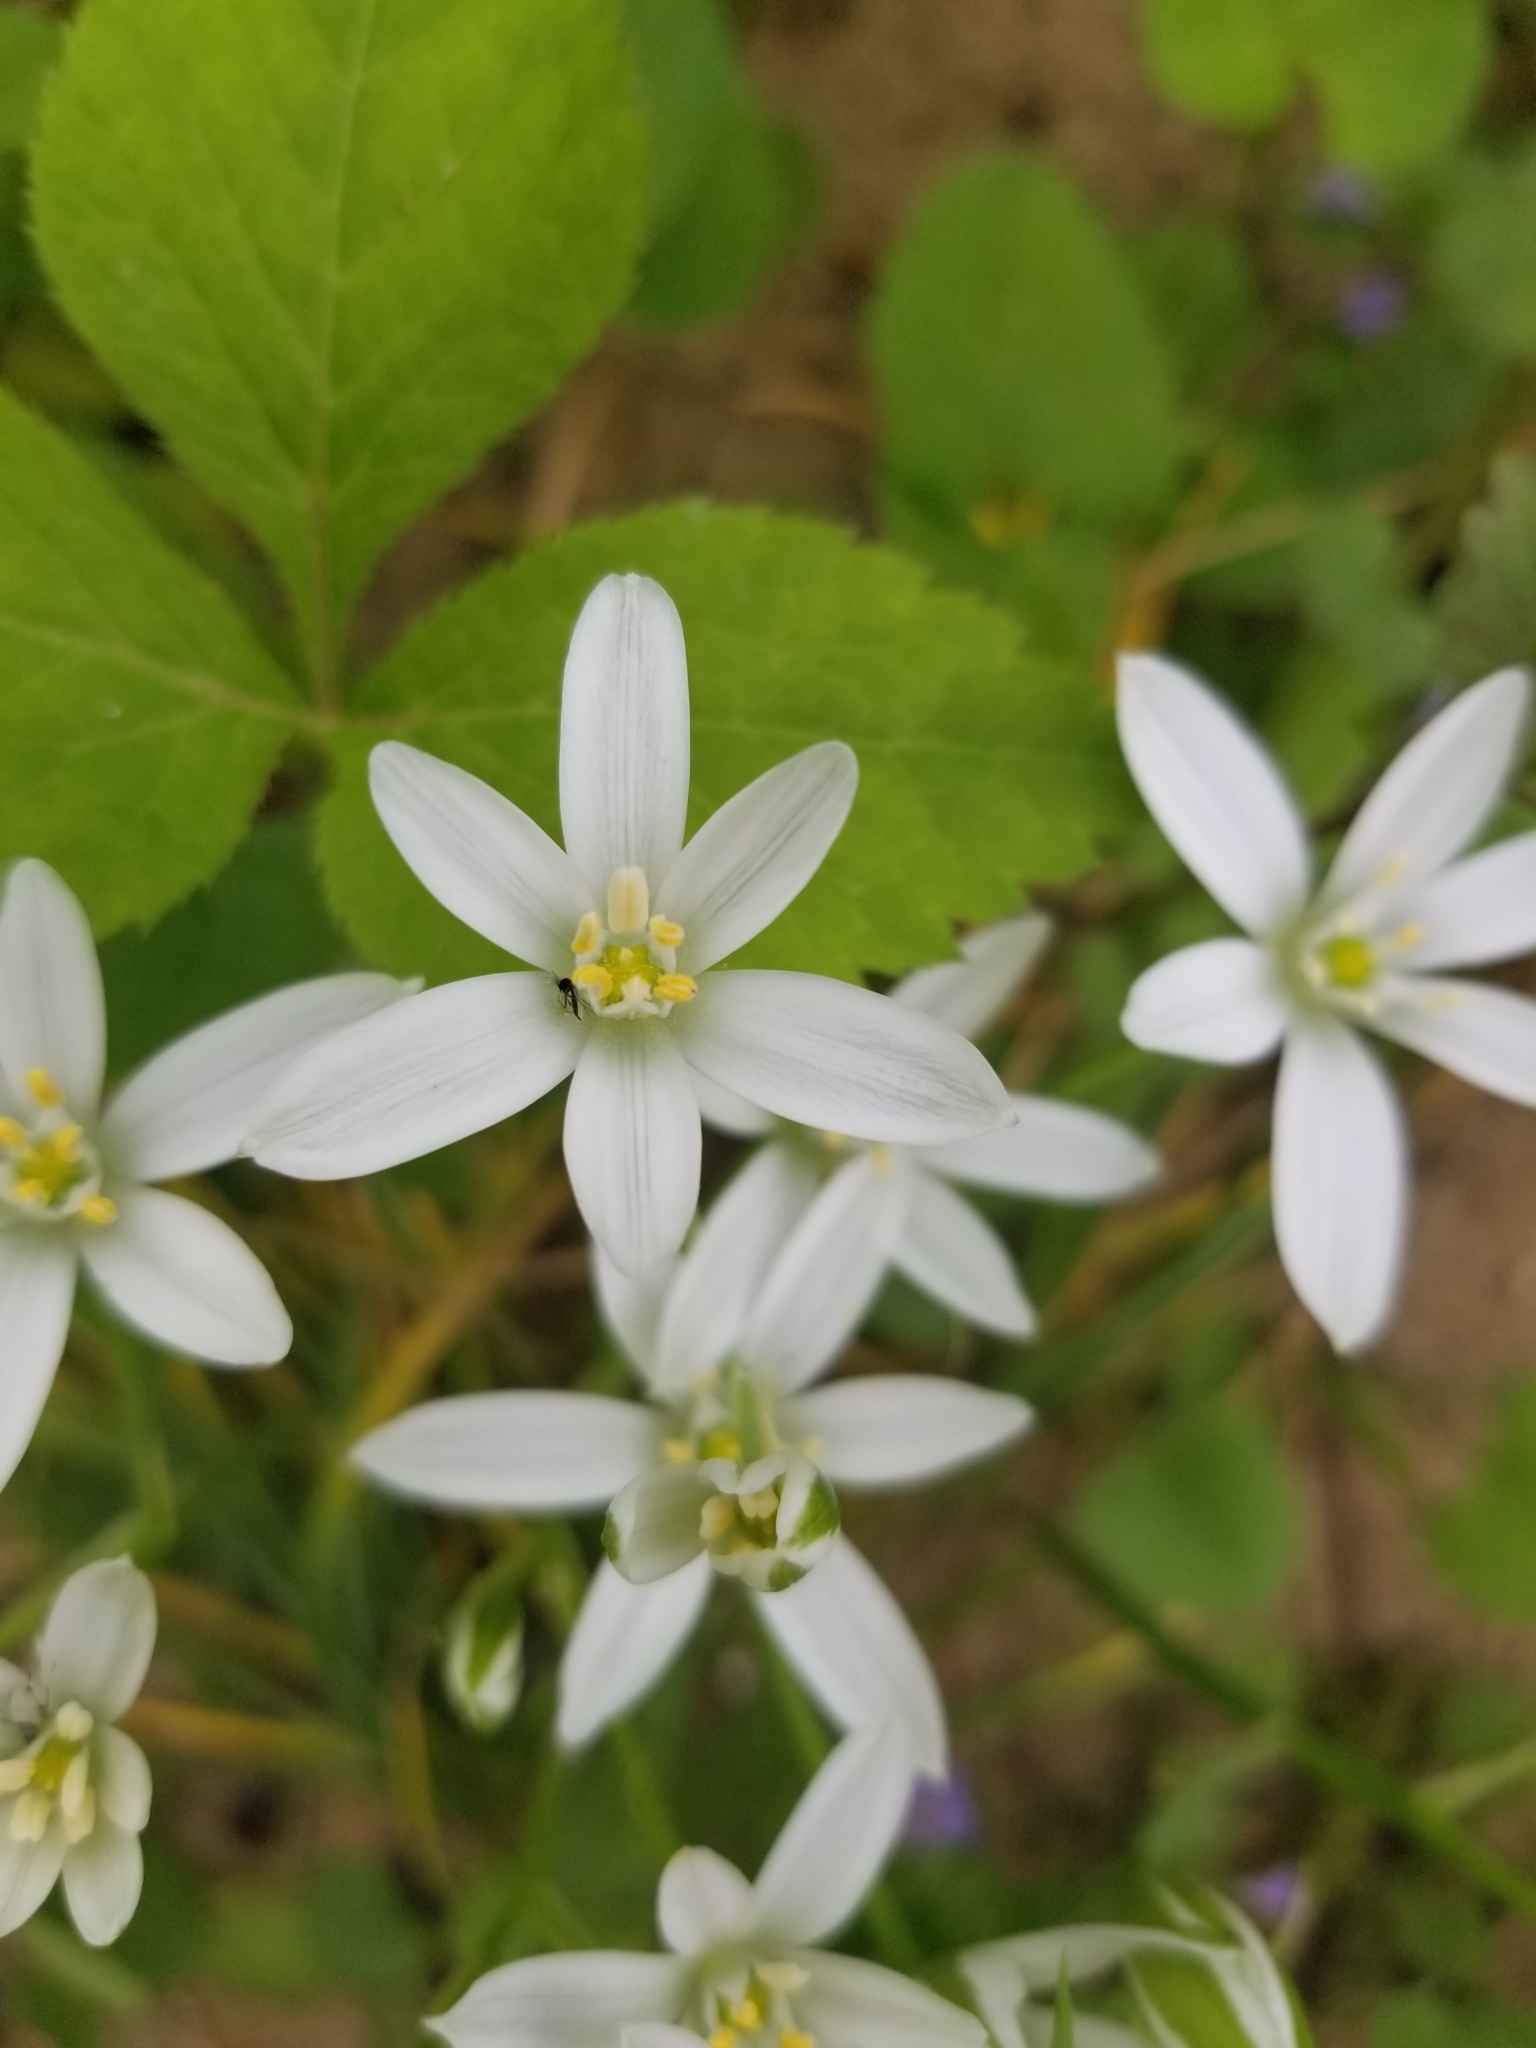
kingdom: Plantae
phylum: Tracheophyta
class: Liliopsida
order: Asparagales
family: Asparagaceae
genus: Ornithogalum
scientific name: Ornithogalum umbellatum
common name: Garden star-of-bethlehem
